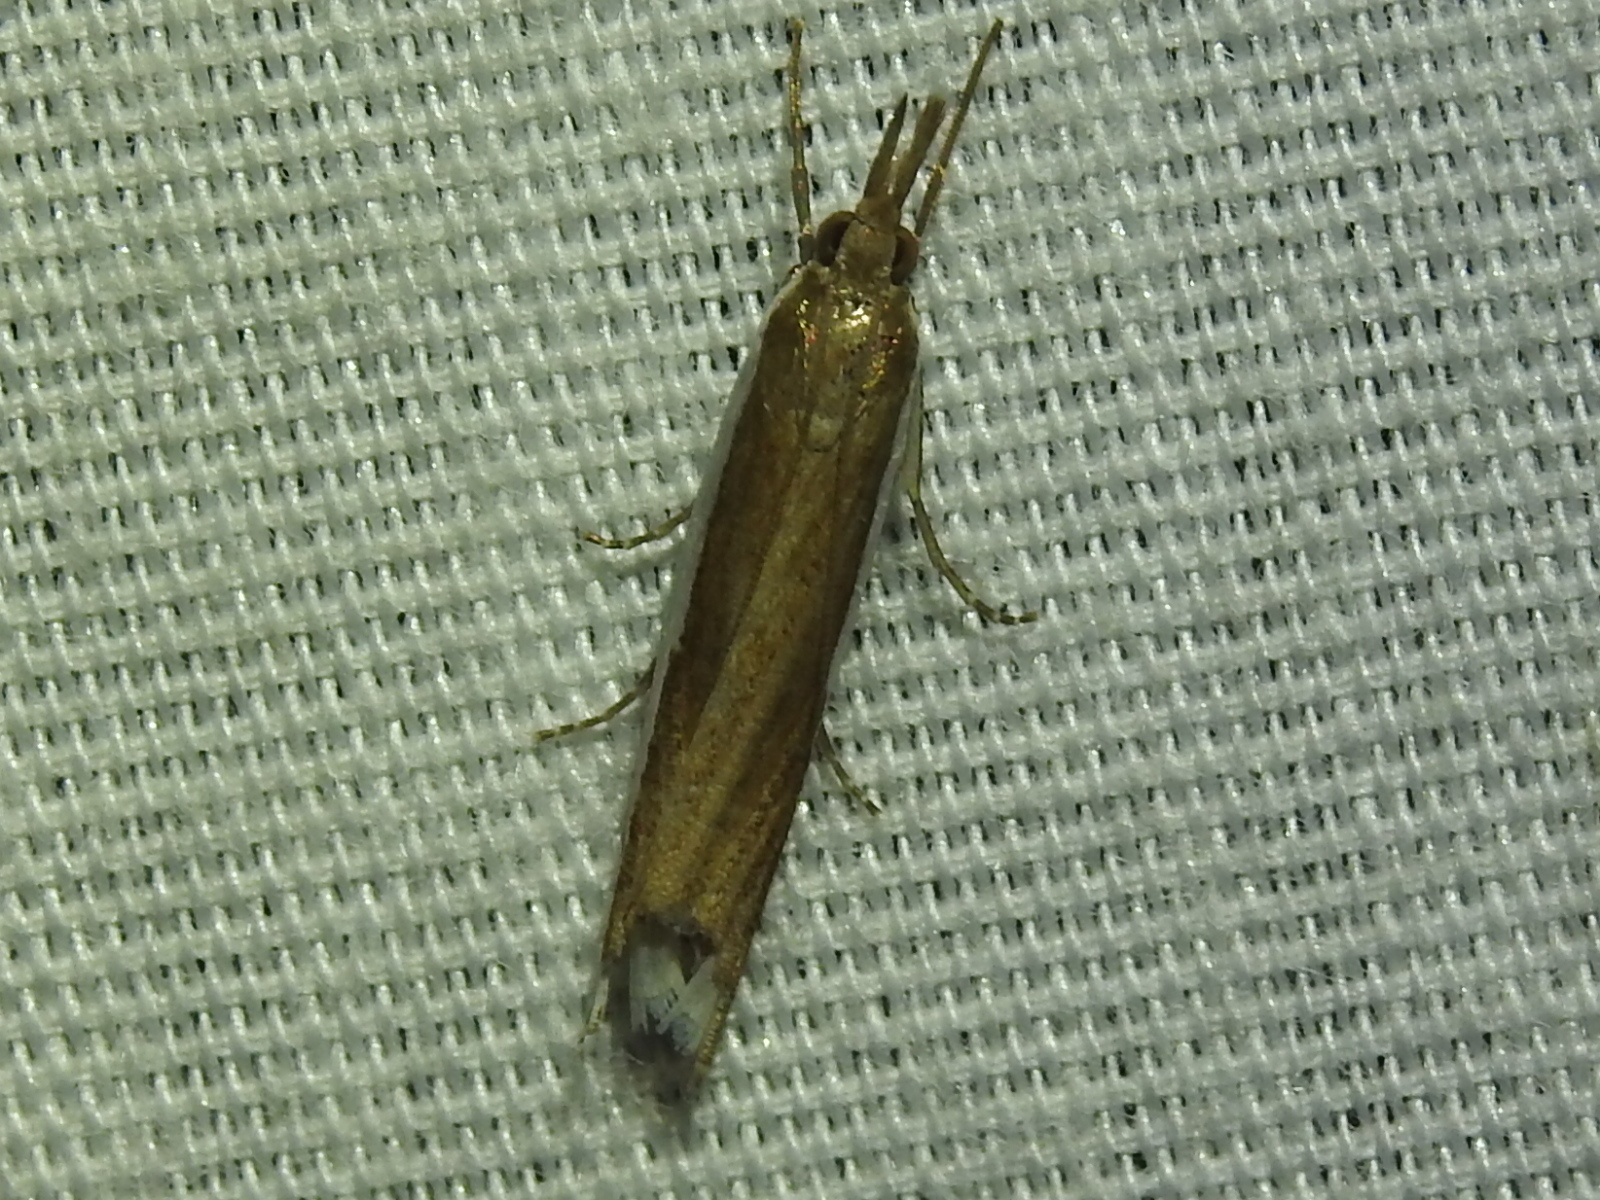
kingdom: Animalia
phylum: Arthropoda
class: Insecta
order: Lepidoptera
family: Crambidae
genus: Crambus
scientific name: Crambus quinquareatus
